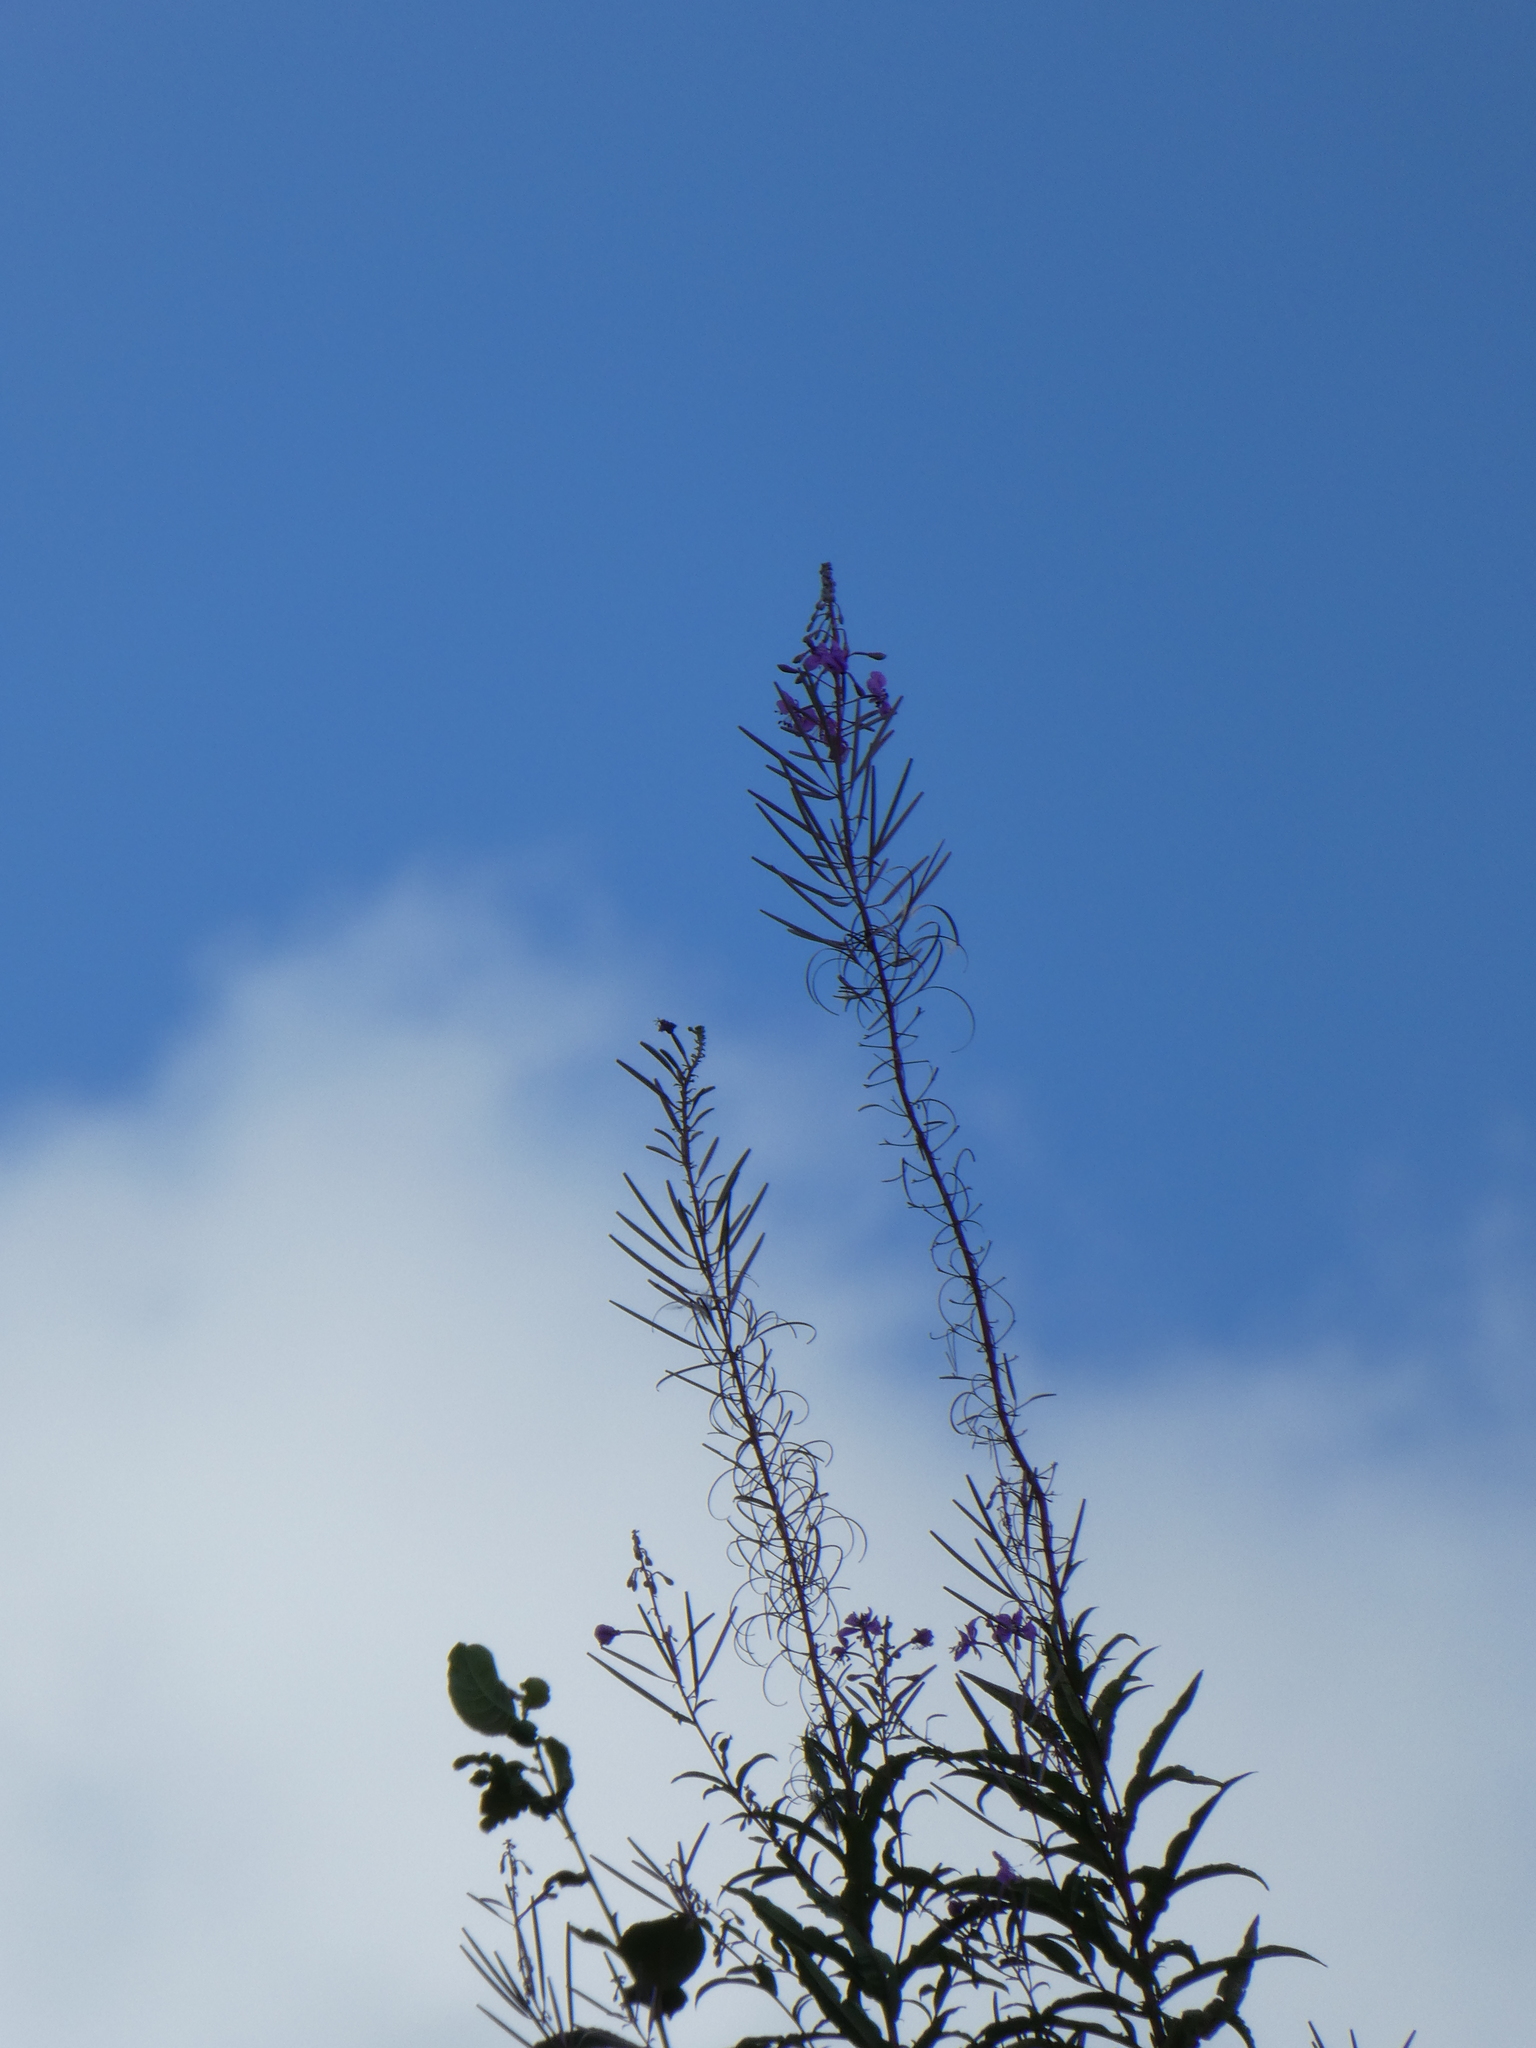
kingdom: Plantae
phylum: Tracheophyta
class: Magnoliopsida
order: Myrtales
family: Onagraceae
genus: Chamaenerion
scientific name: Chamaenerion angustifolium
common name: Fireweed
